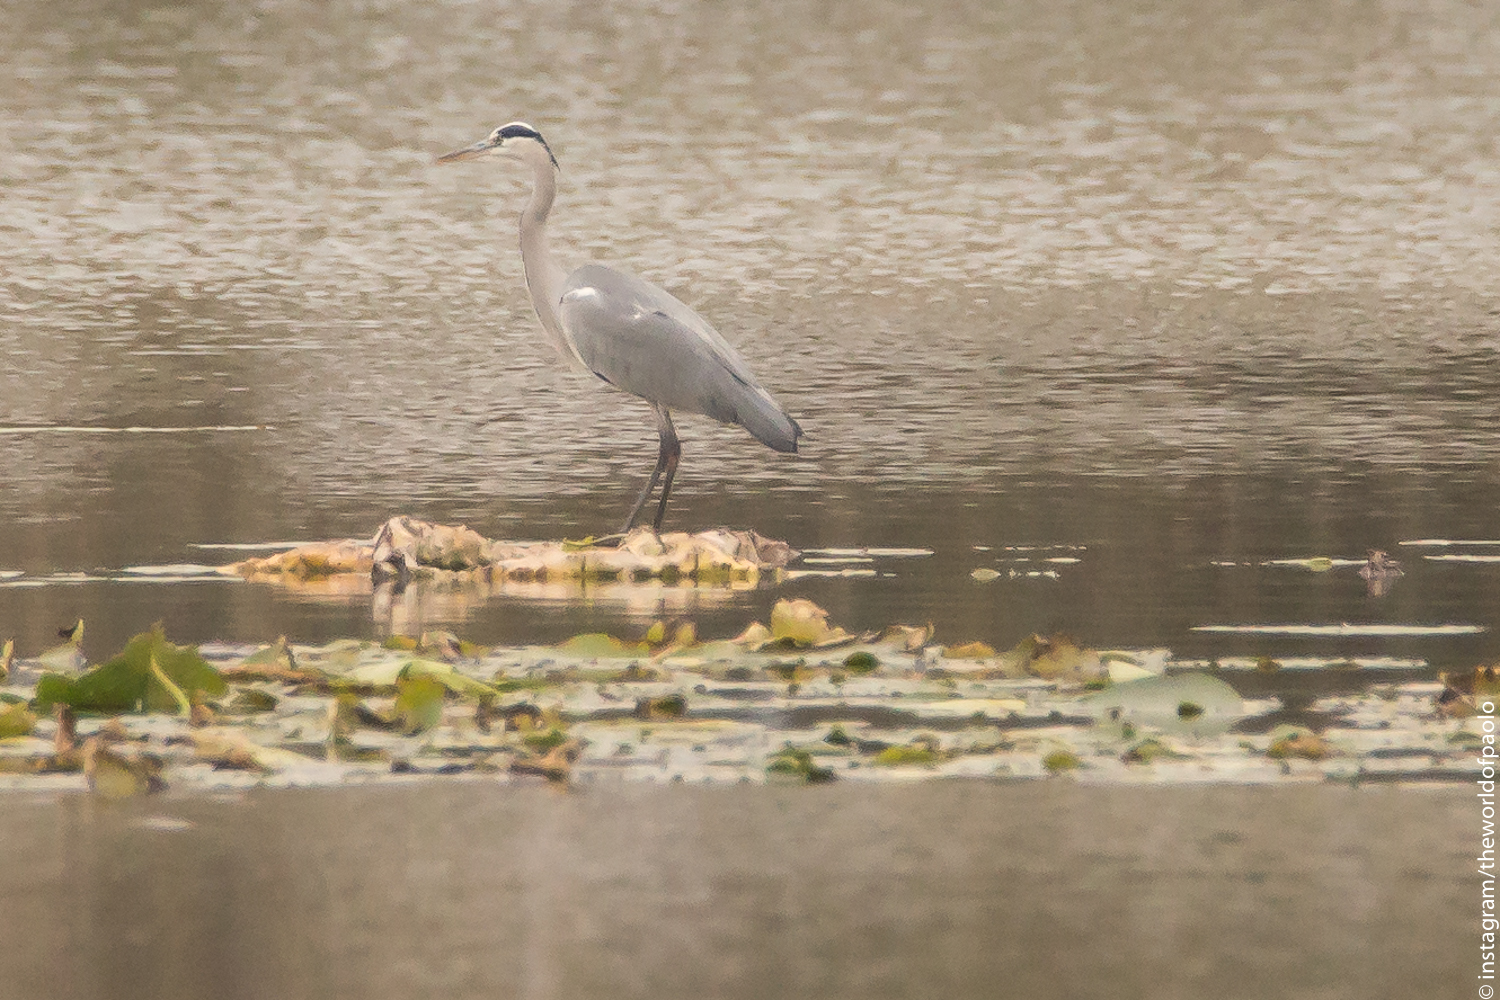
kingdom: Animalia
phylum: Chordata
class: Aves
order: Pelecaniformes
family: Ardeidae
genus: Ardea
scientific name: Ardea cinerea
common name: Grey heron
